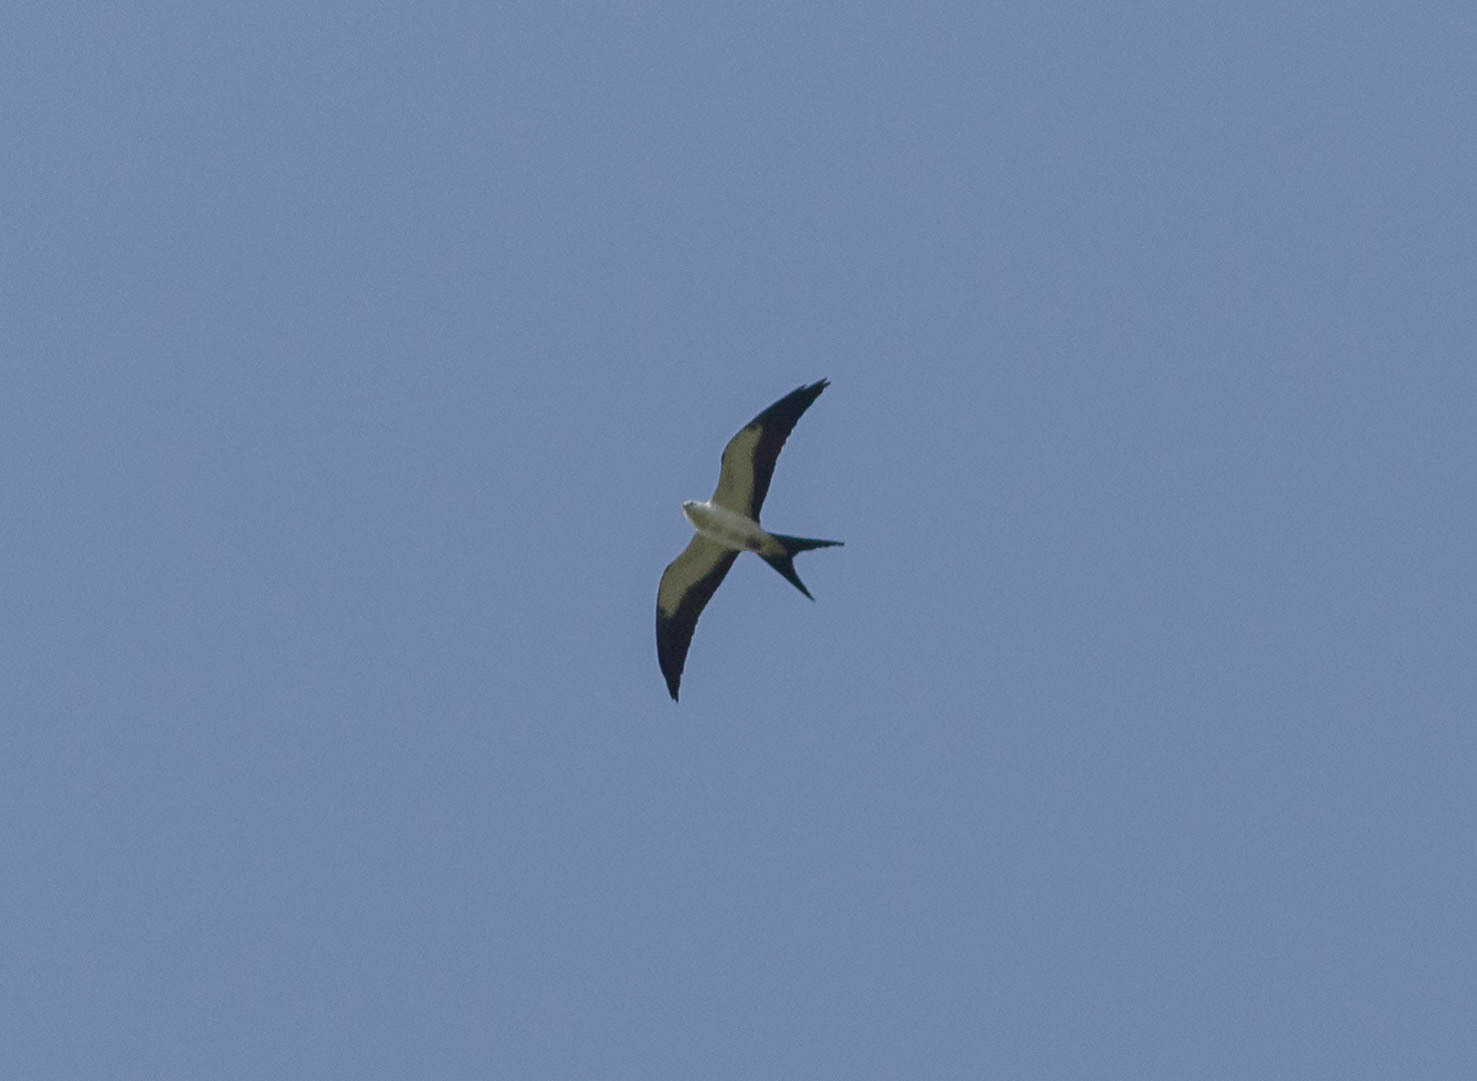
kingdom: Animalia
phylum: Chordata
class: Aves
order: Accipitriformes
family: Accipitridae
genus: Elanoides
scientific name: Elanoides forficatus
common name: Swallow-tailed kite
